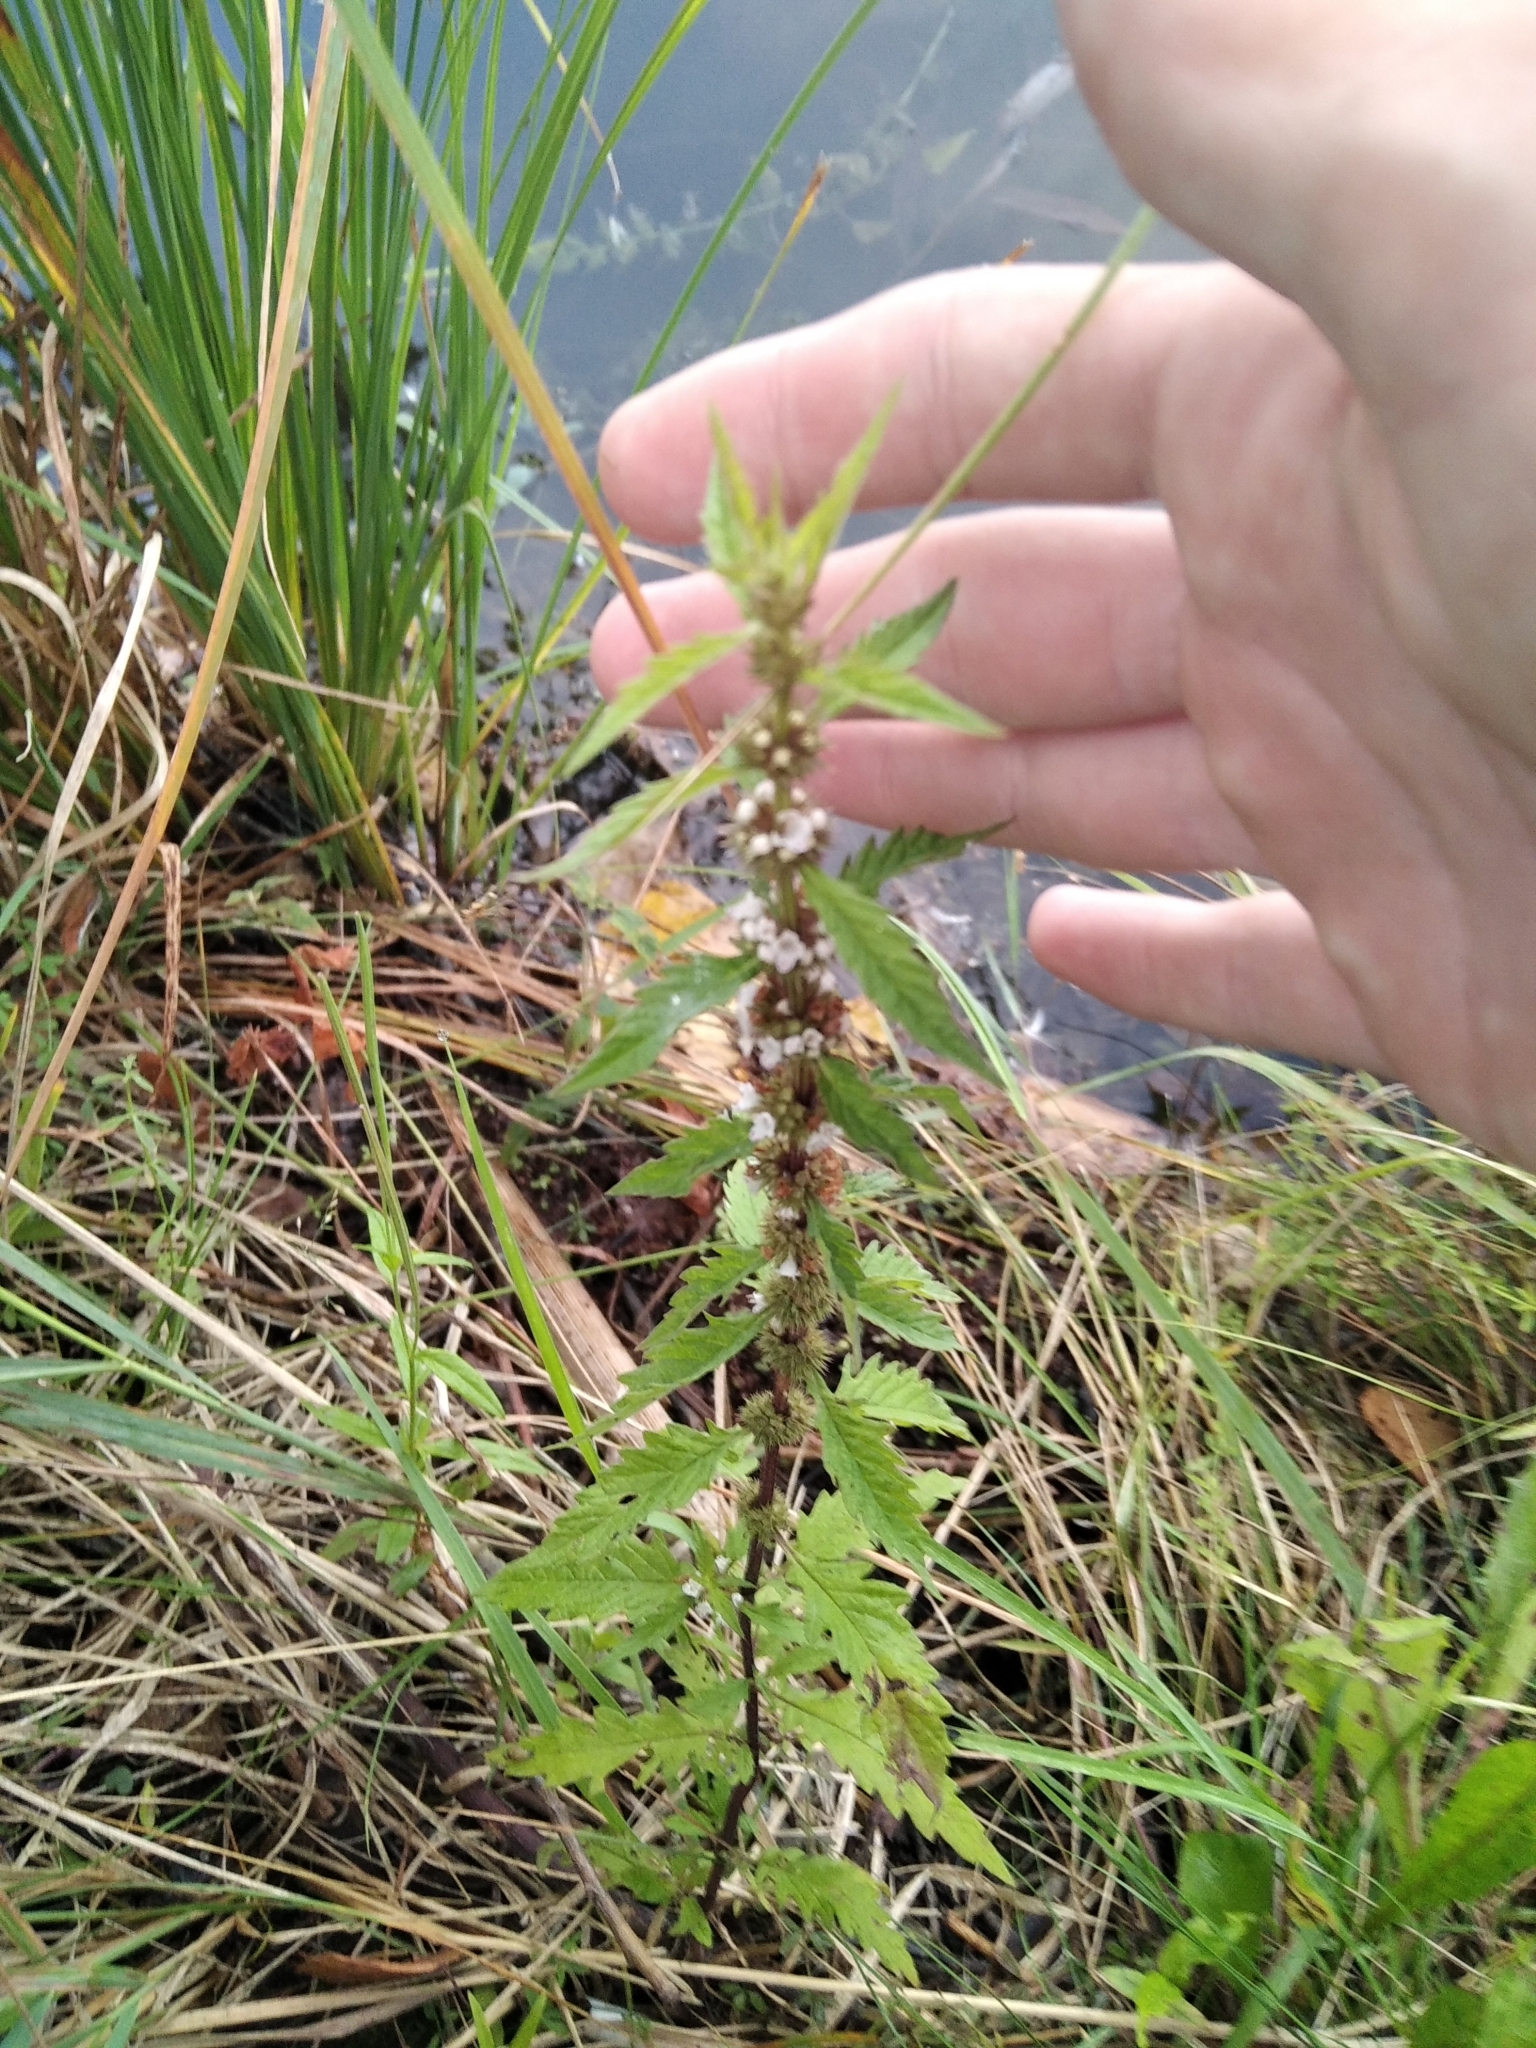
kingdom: Plantae
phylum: Tracheophyta
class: Magnoliopsida
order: Lamiales
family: Lamiaceae
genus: Lycopus
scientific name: Lycopus europaeus
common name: European bugleweed
